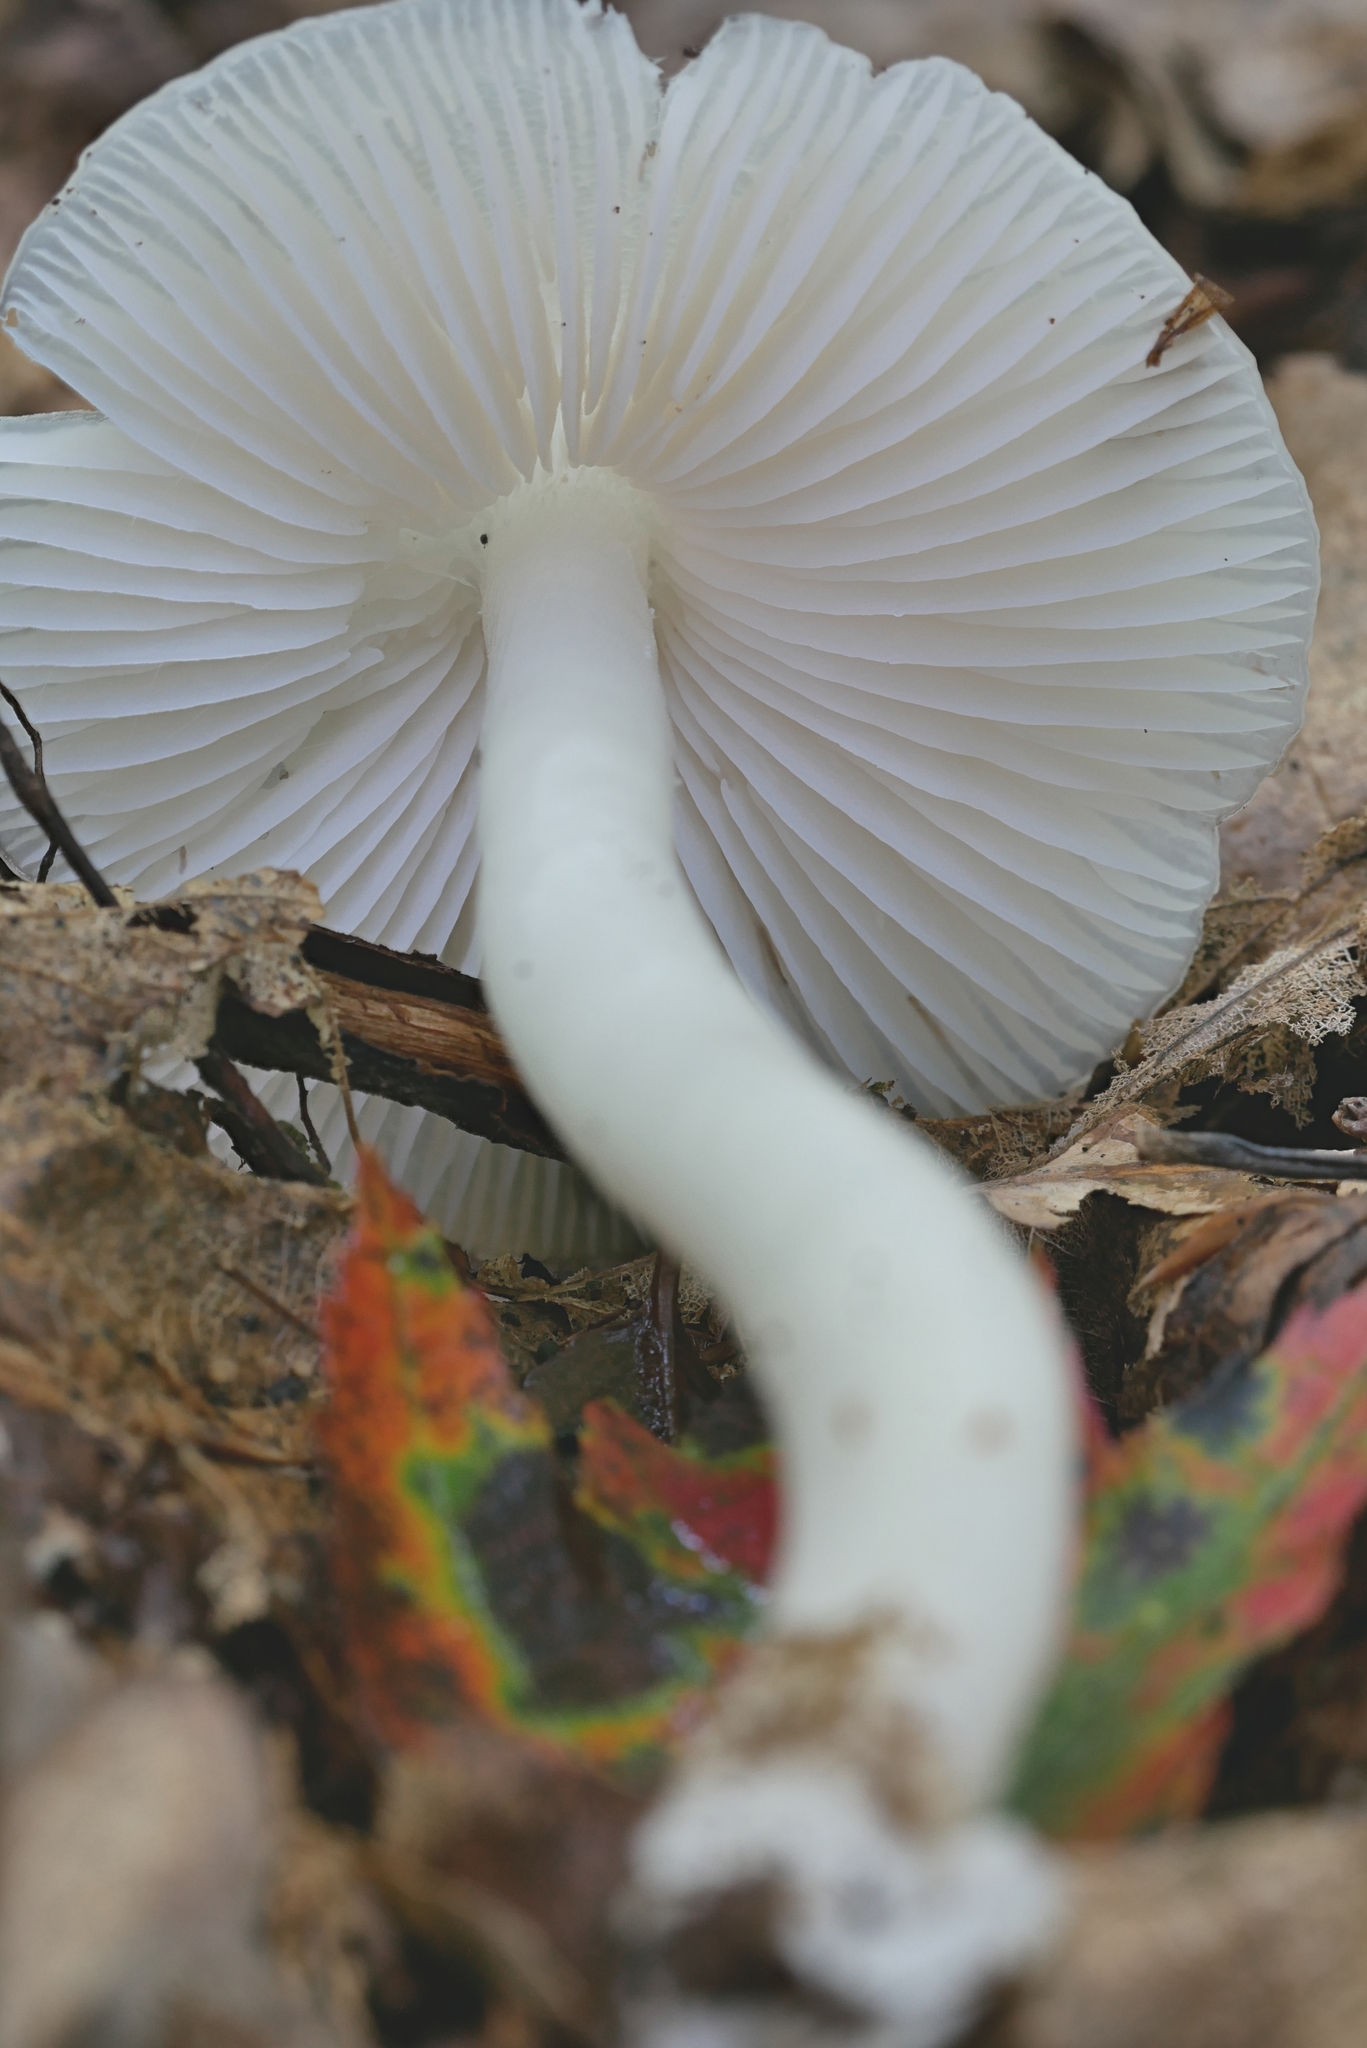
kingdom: Fungi
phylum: Basidiomycota
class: Agaricomycetes
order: Agaricales
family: Hygrophoraceae
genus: Humidicutis
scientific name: Humidicutis pura
